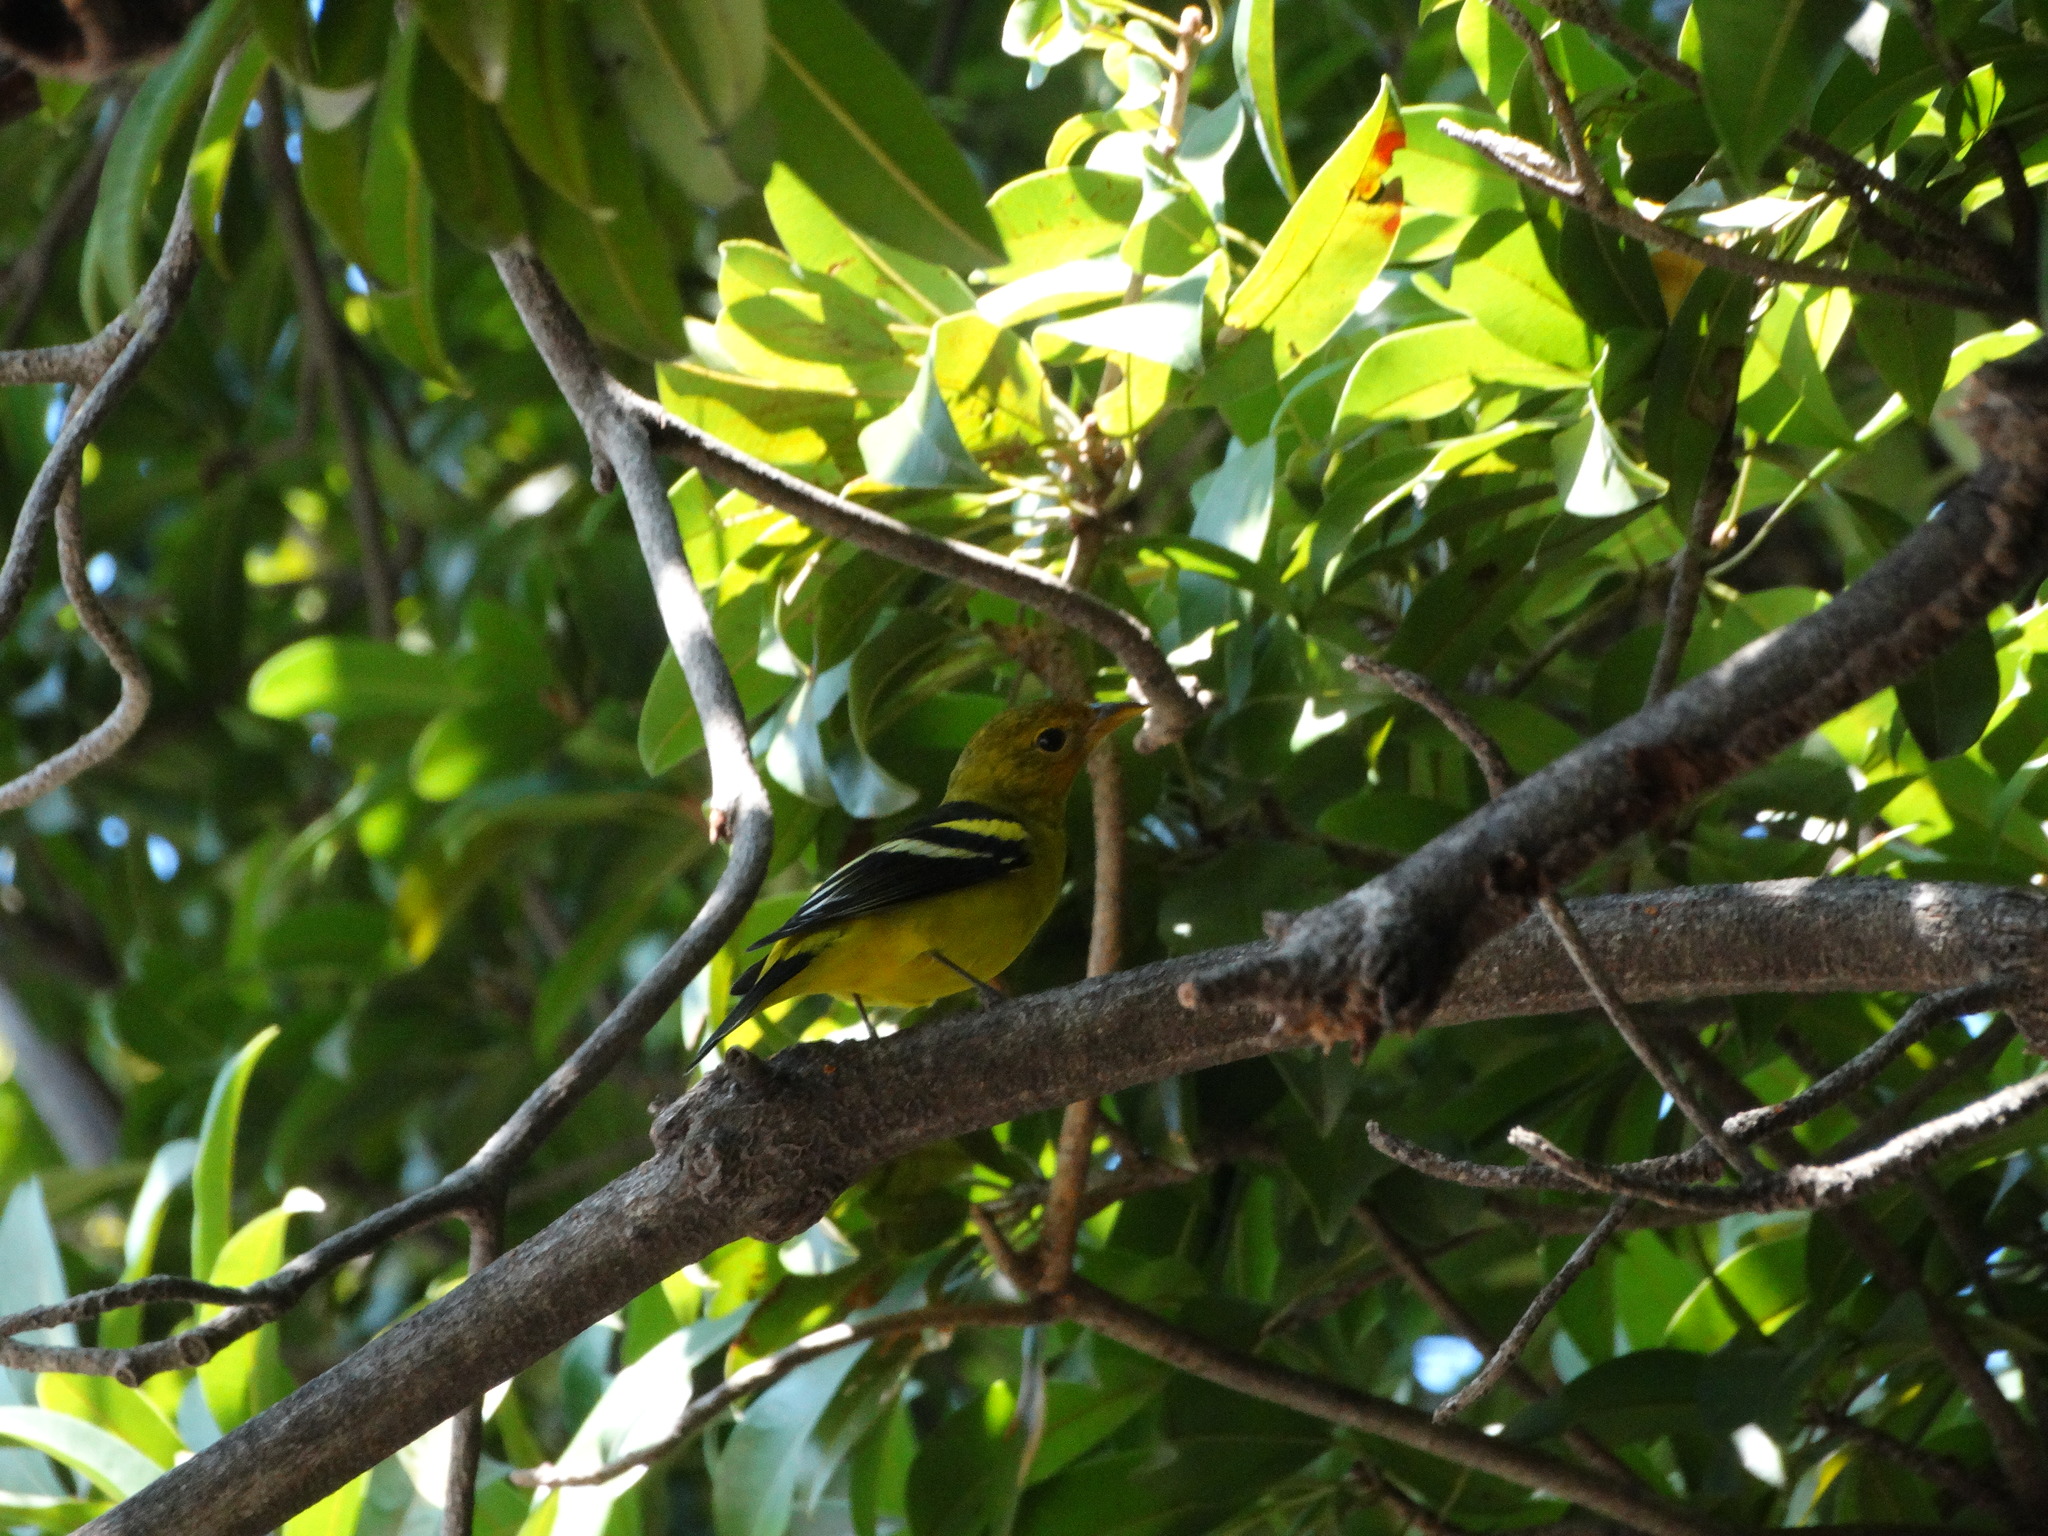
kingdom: Animalia
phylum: Chordata
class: Aves
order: Passeriformes
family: Cardinalidae
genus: Piranga
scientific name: Piranga ludoviciana
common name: Western tanager
